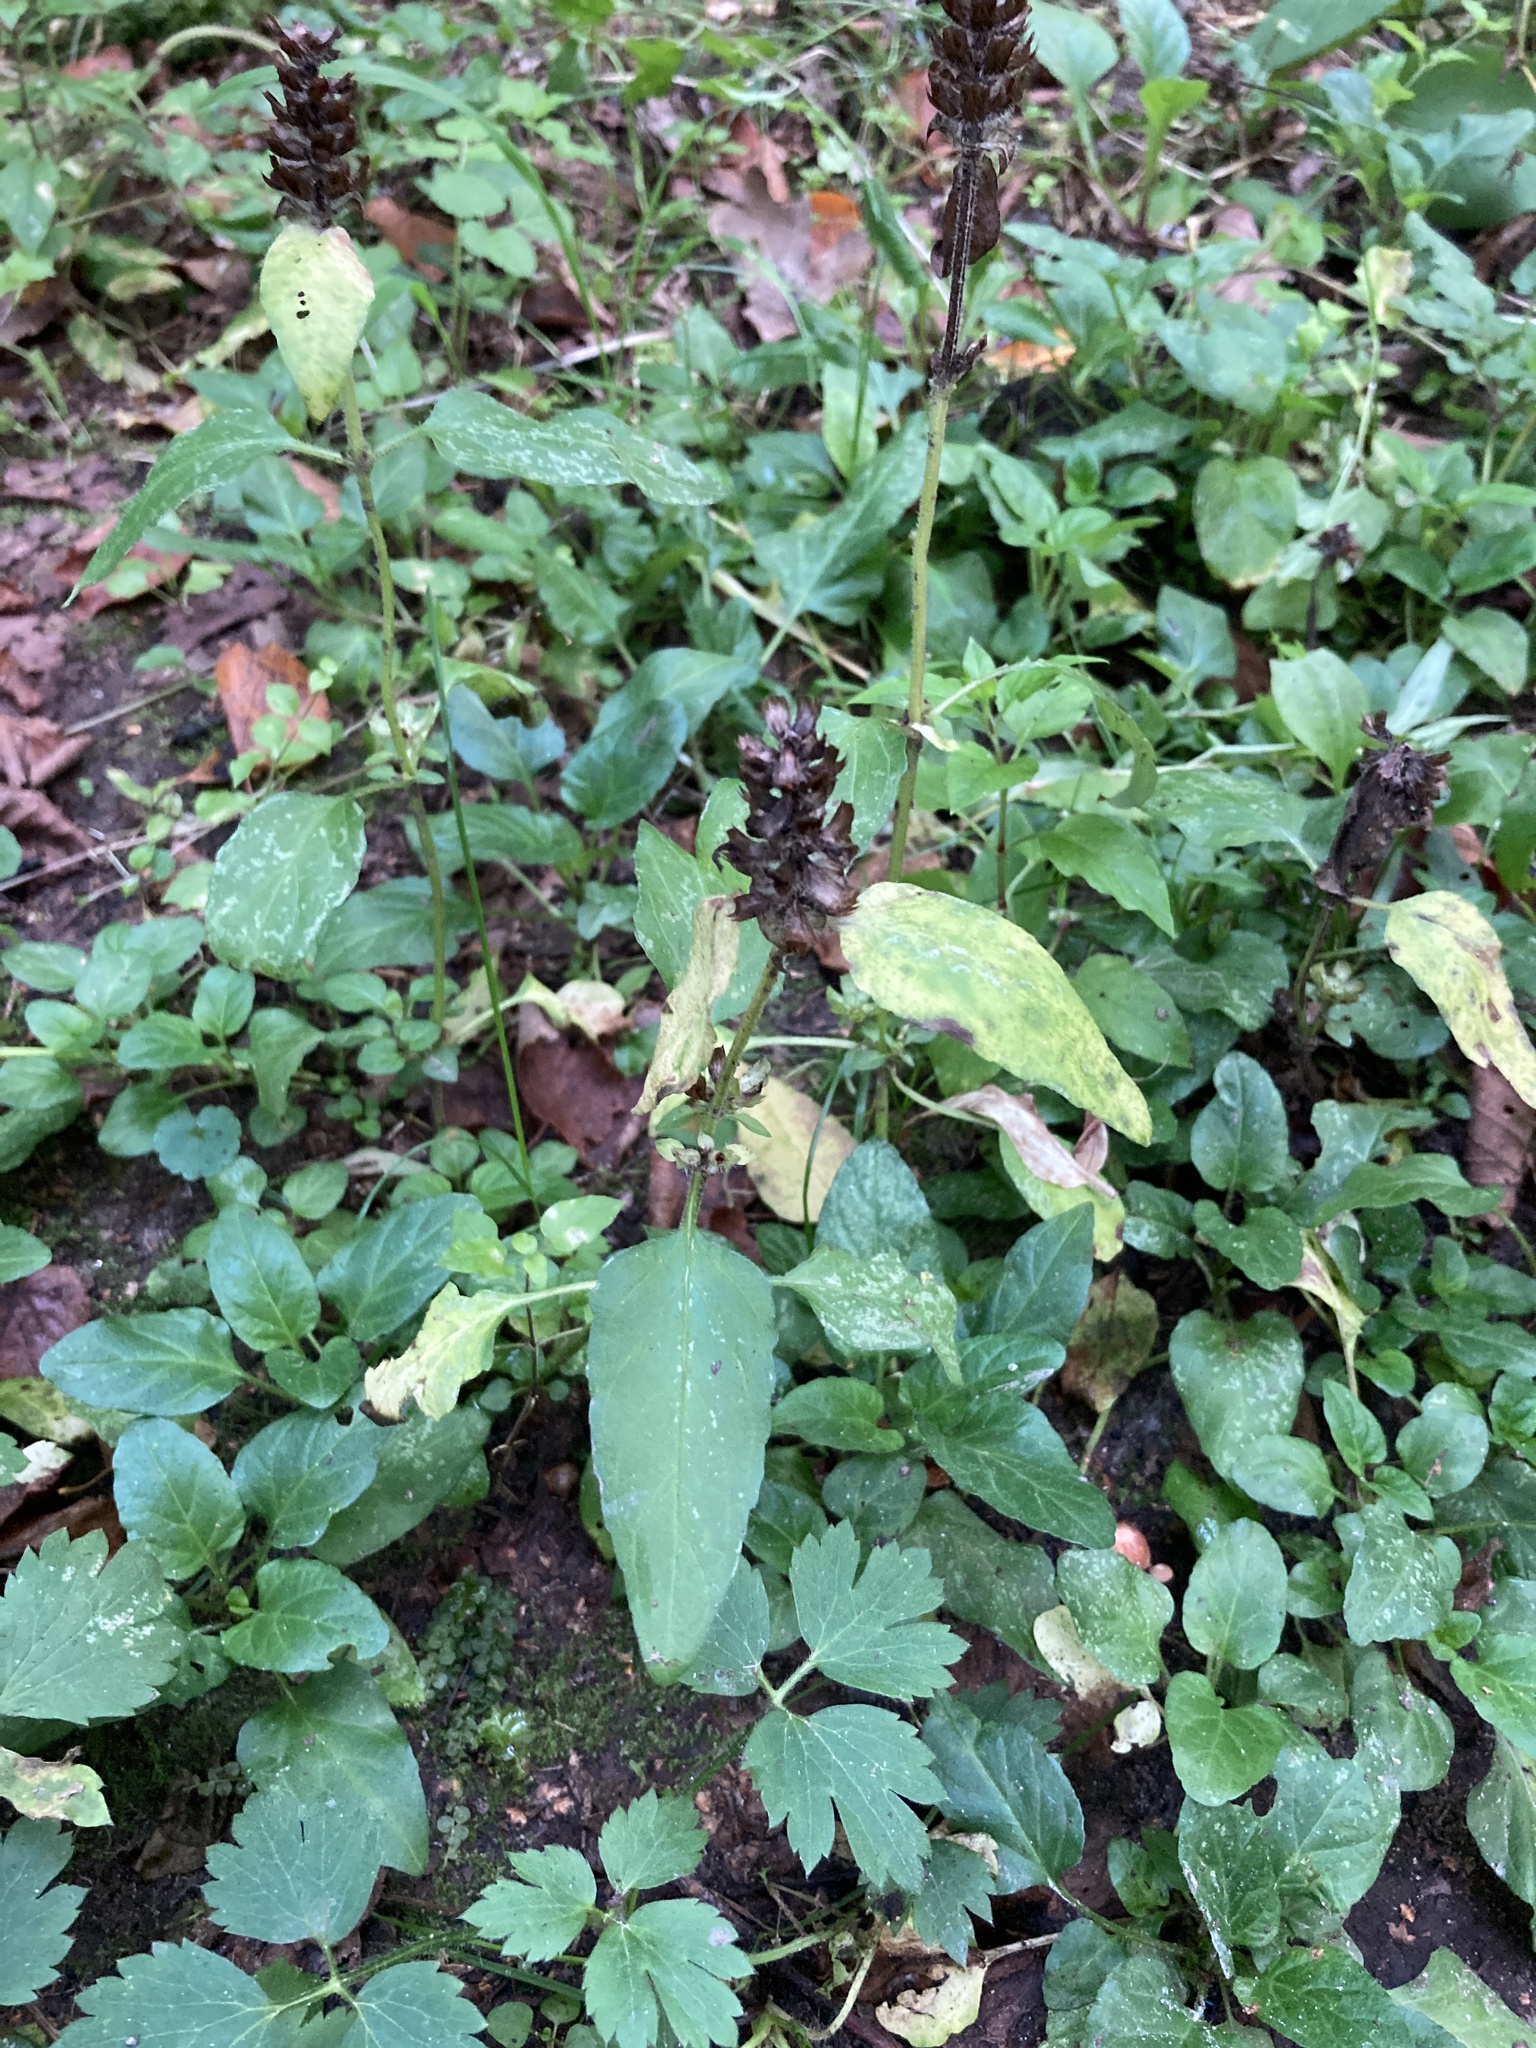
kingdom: Plantae
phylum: Tracheophyta
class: Magnoliopsida
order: Lamiales
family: Lamiaceae
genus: Prunella
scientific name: Prunella vulgaris
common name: Heal-all
